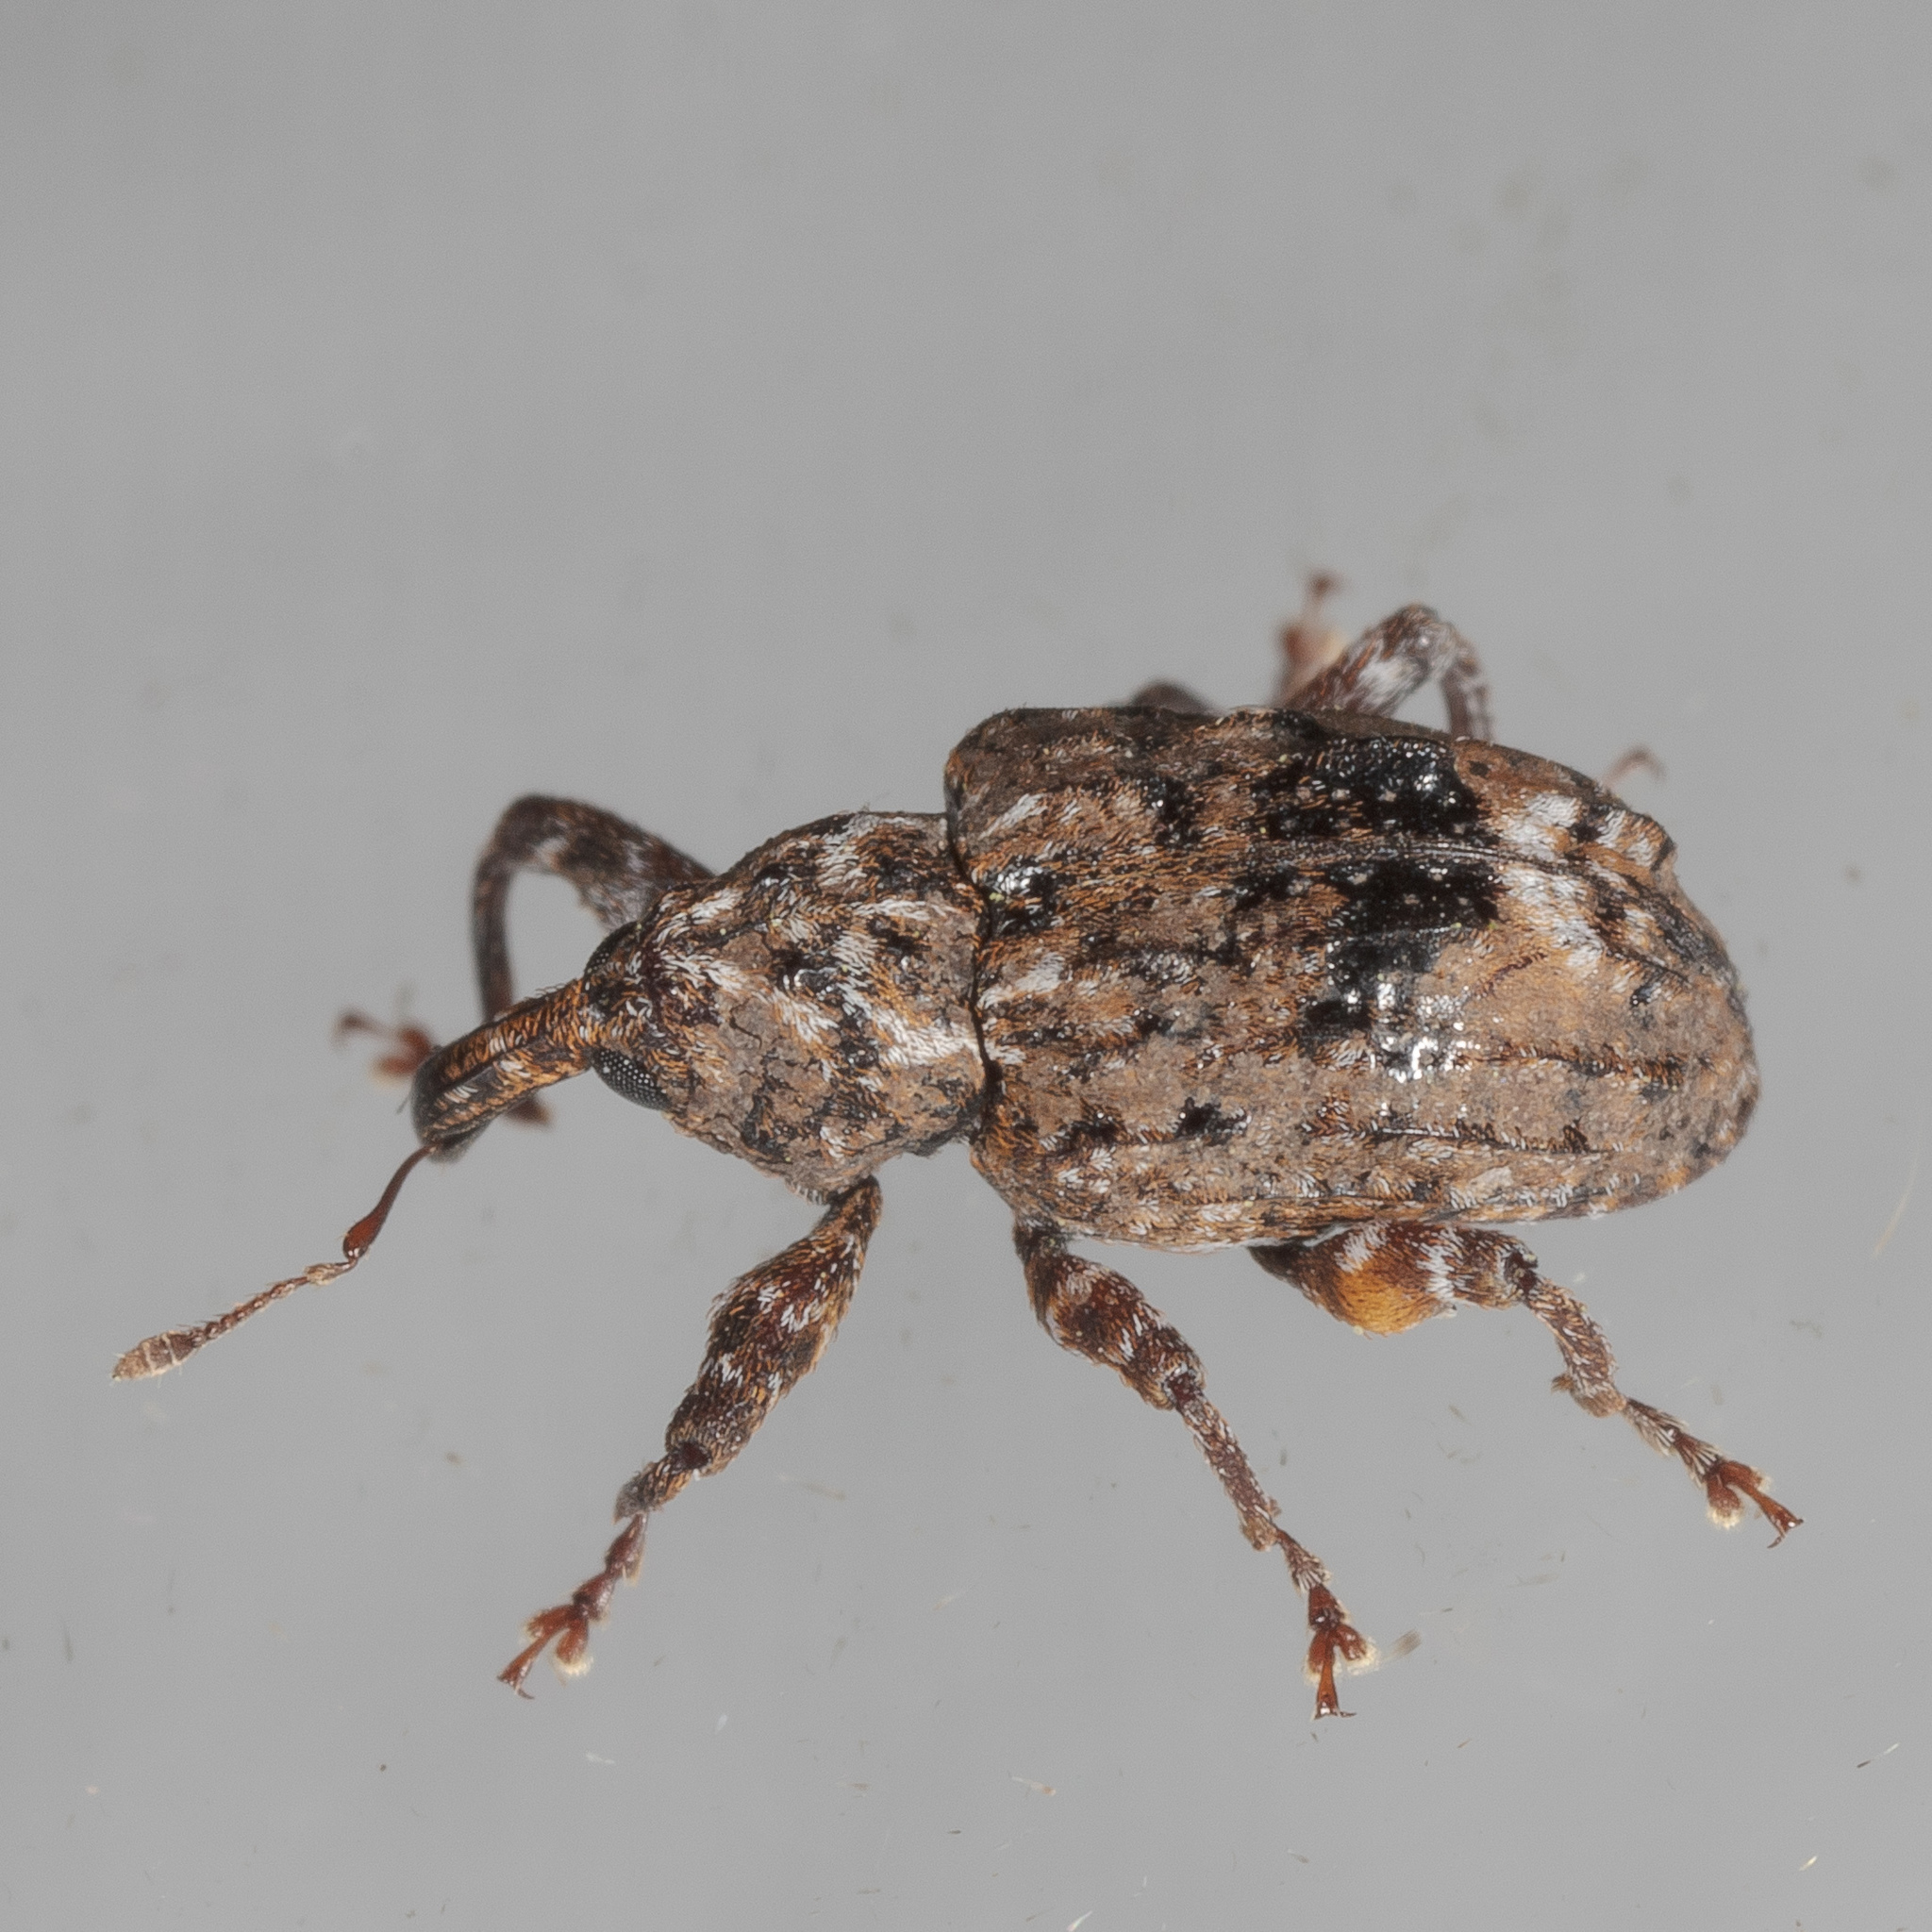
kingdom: Animalia
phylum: Arthropoda
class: Insecta
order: Coleoptera
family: Curculionidae
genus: Conotrachelus
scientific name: Conotrachelus nenuphar
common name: Plum curculio
